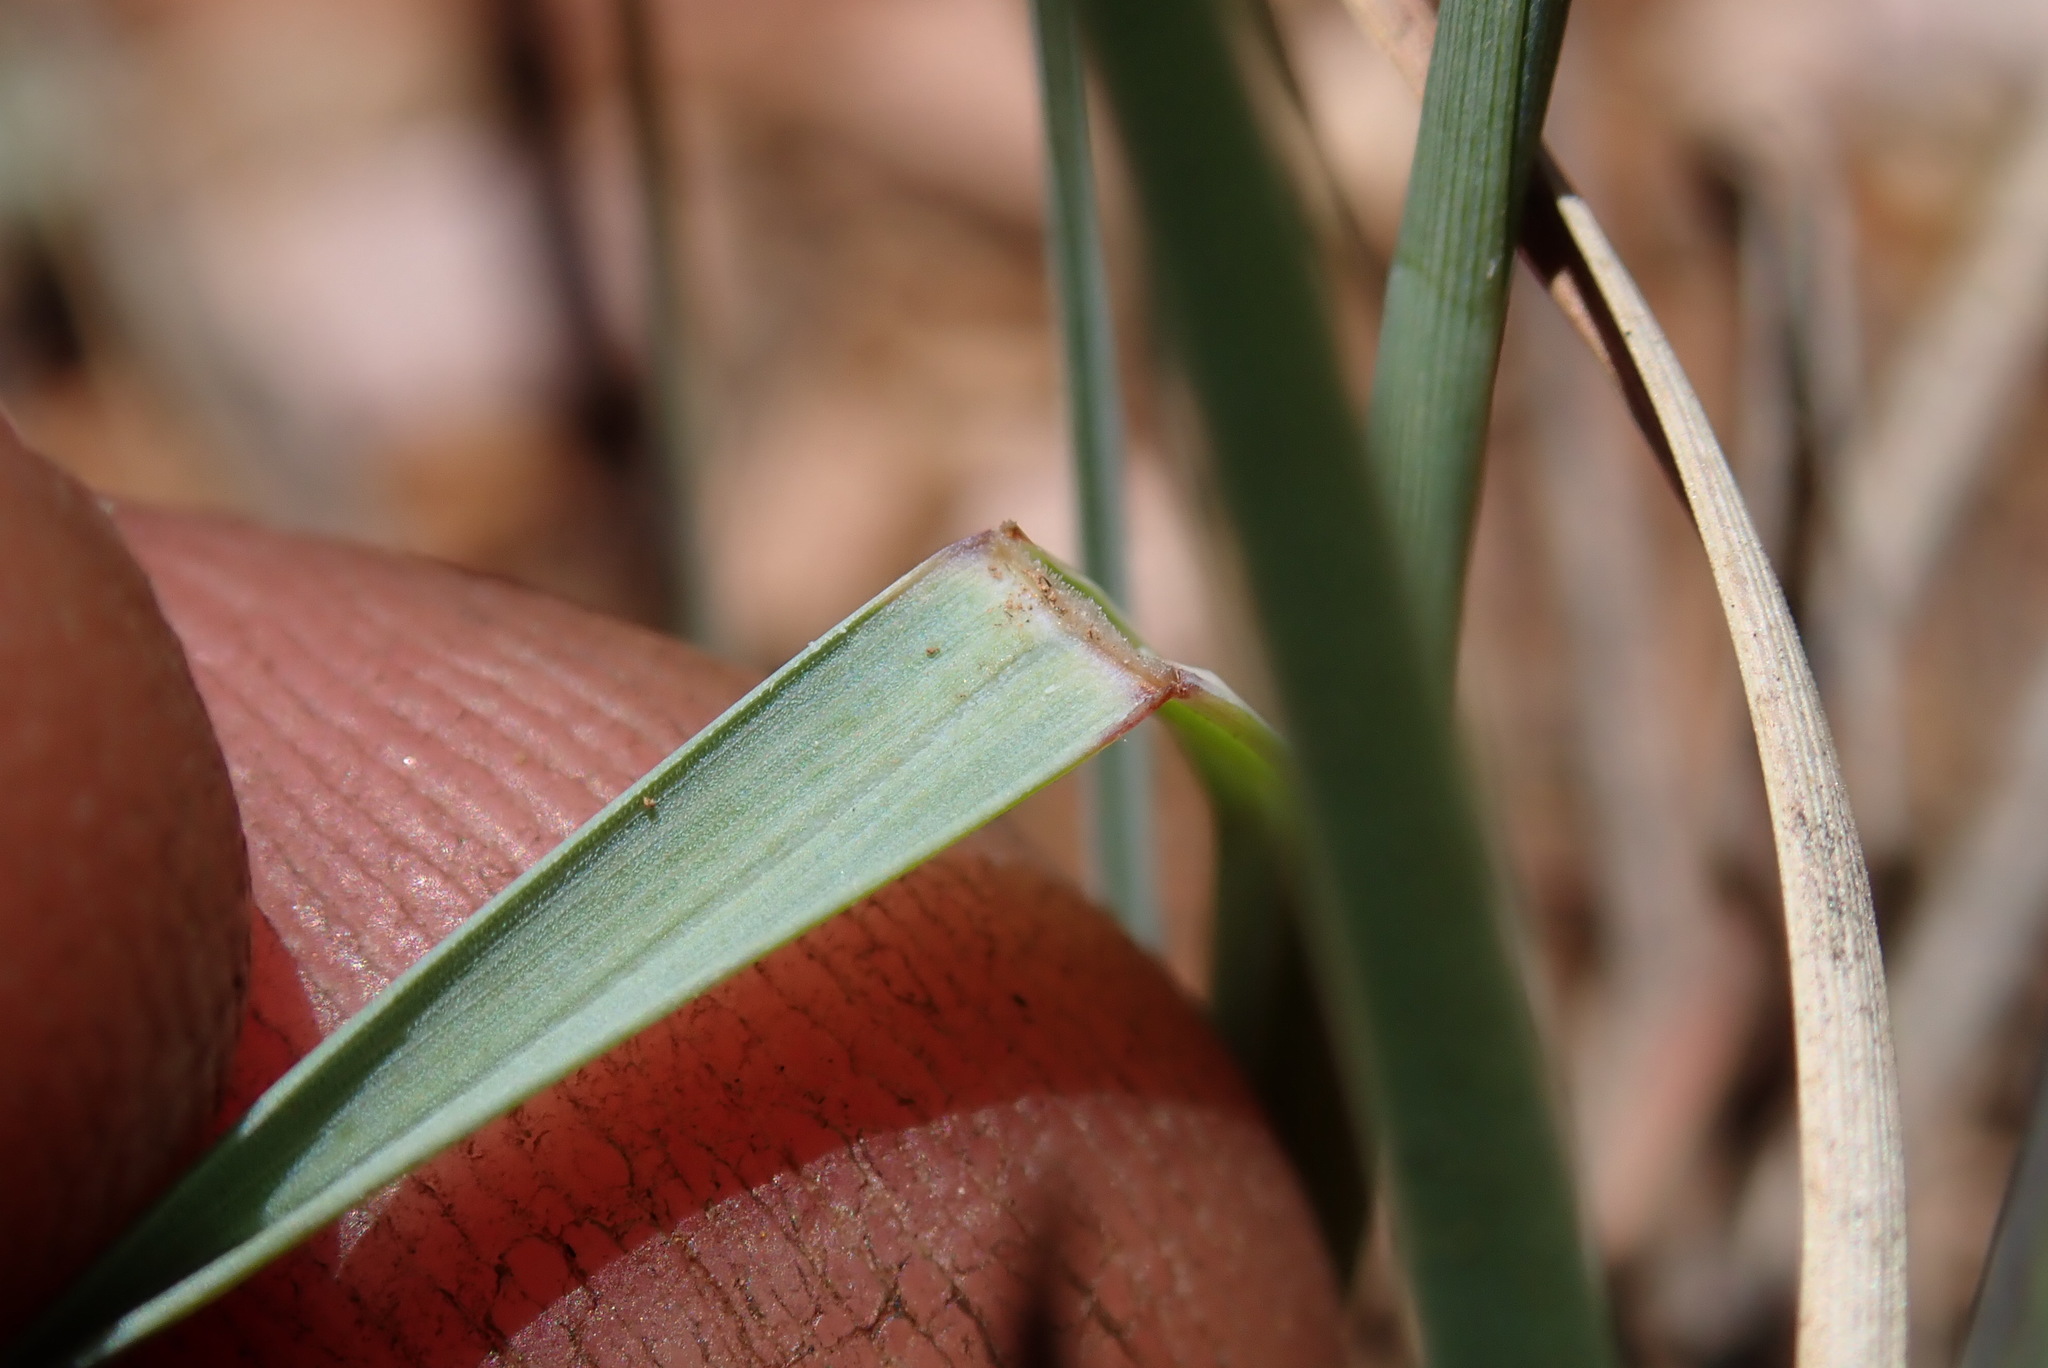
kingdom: Plantae
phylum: Tracheophyta
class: Liliopsida
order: Poales
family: Poaceae
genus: Heteropogon
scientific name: Heteropogon contortus
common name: Tanglehead
